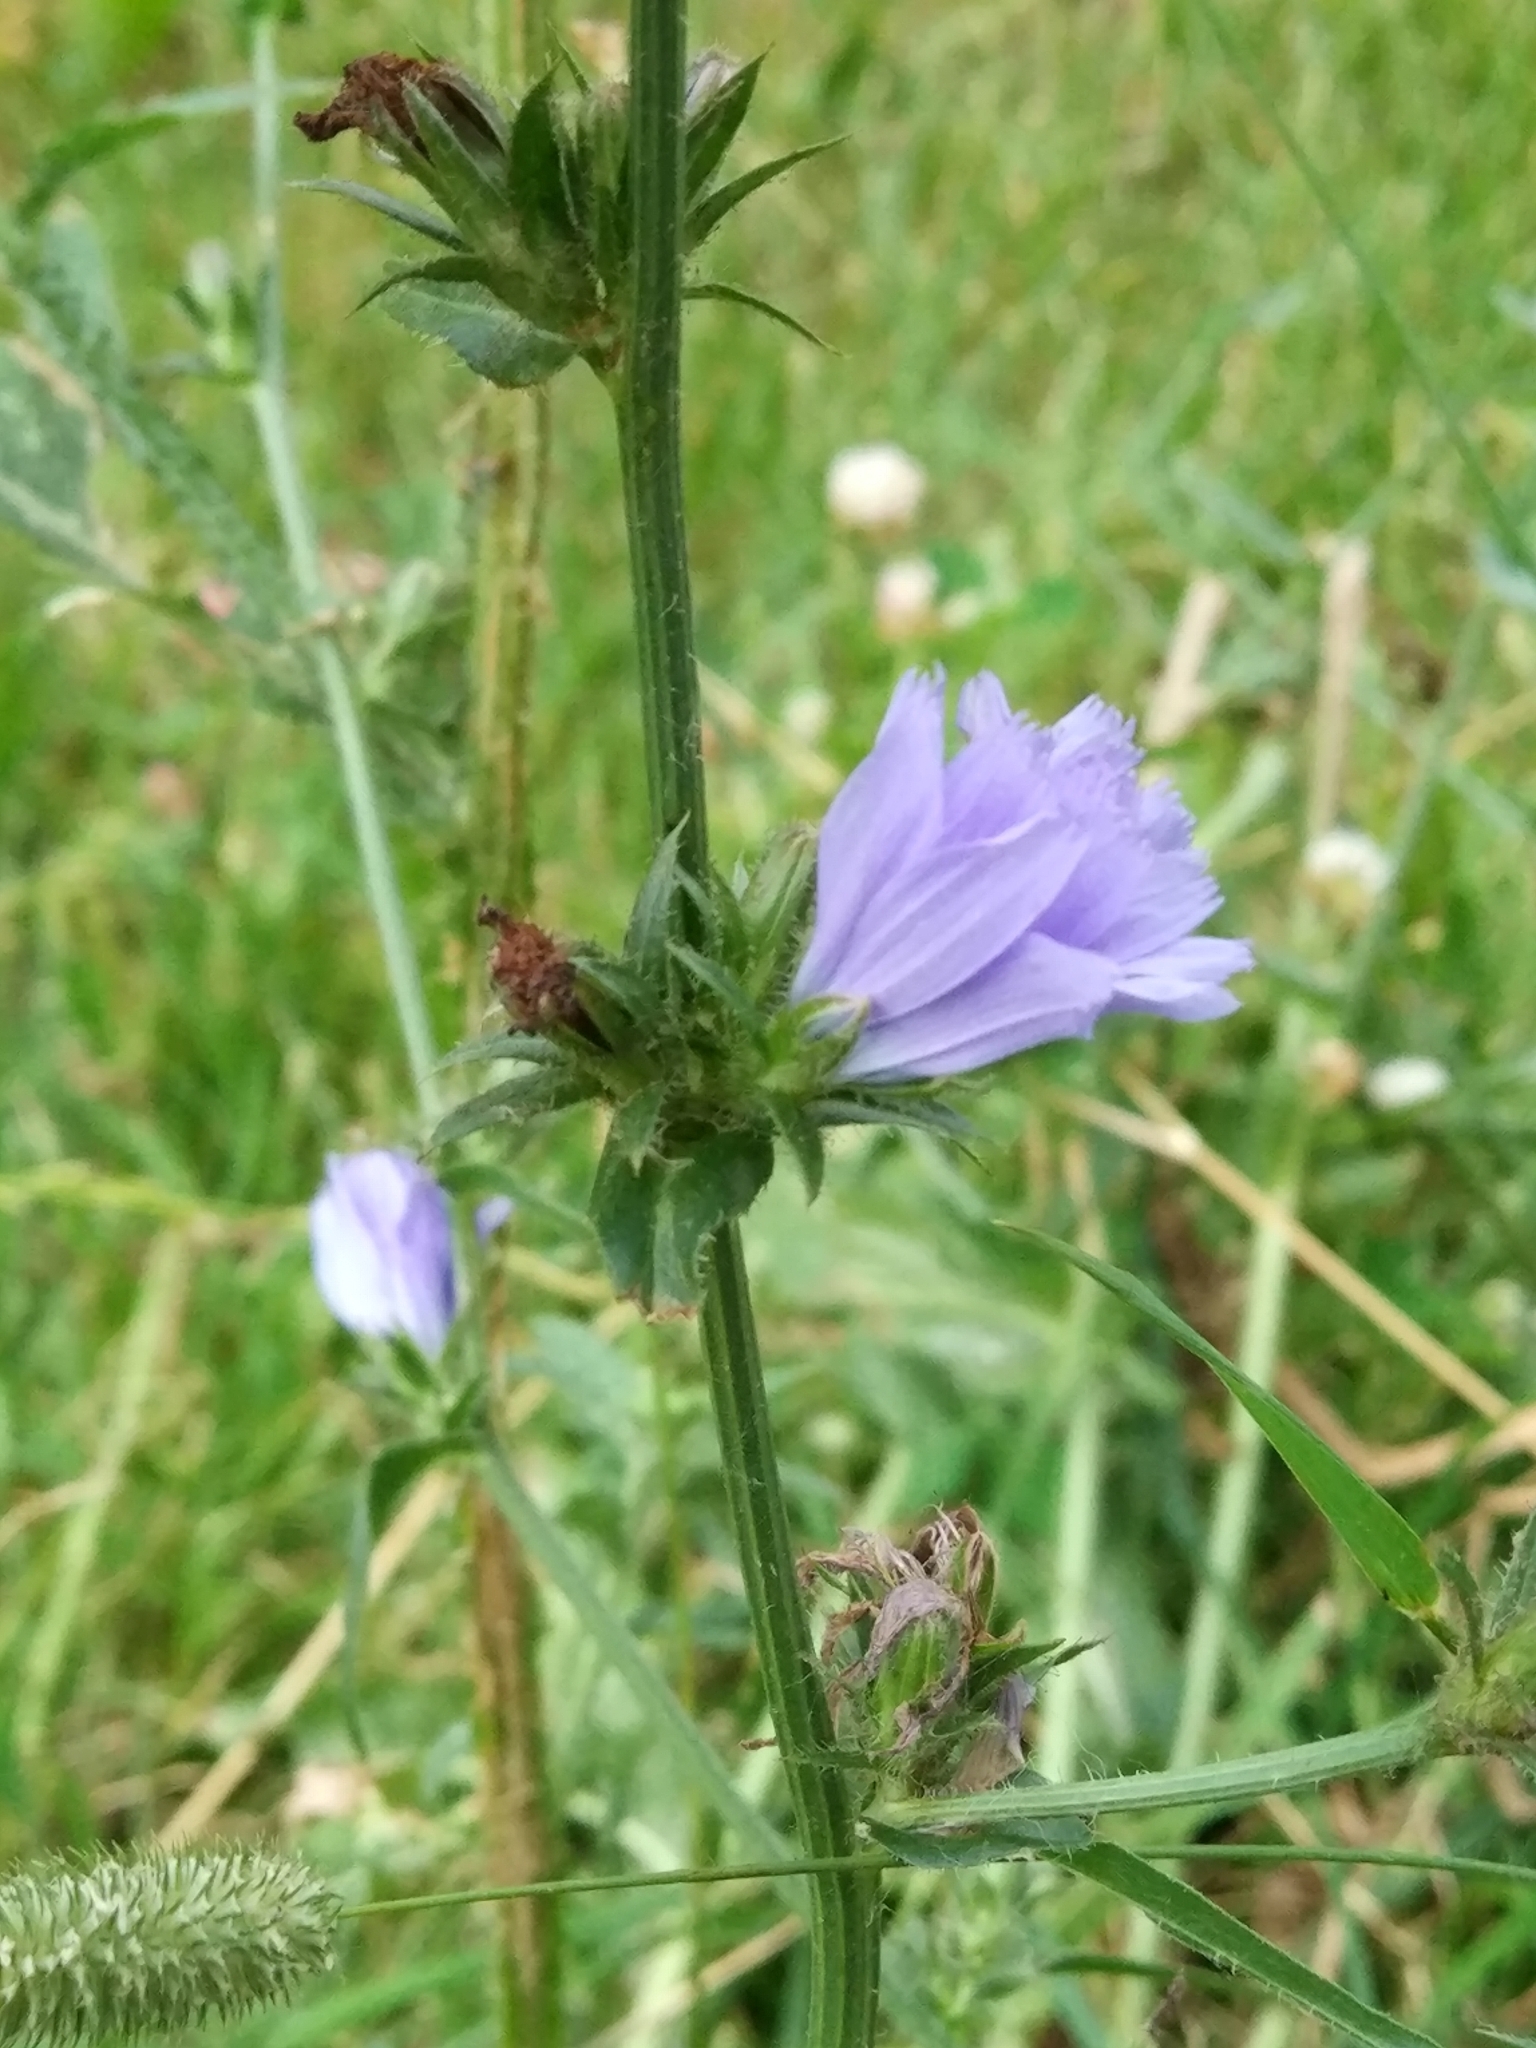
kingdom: Plantae
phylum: Tracheophyta
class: Magnoliopsida
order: Asterales
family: Asteraceae
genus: Cichorium
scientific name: Cichorium intybus
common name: Chicory
